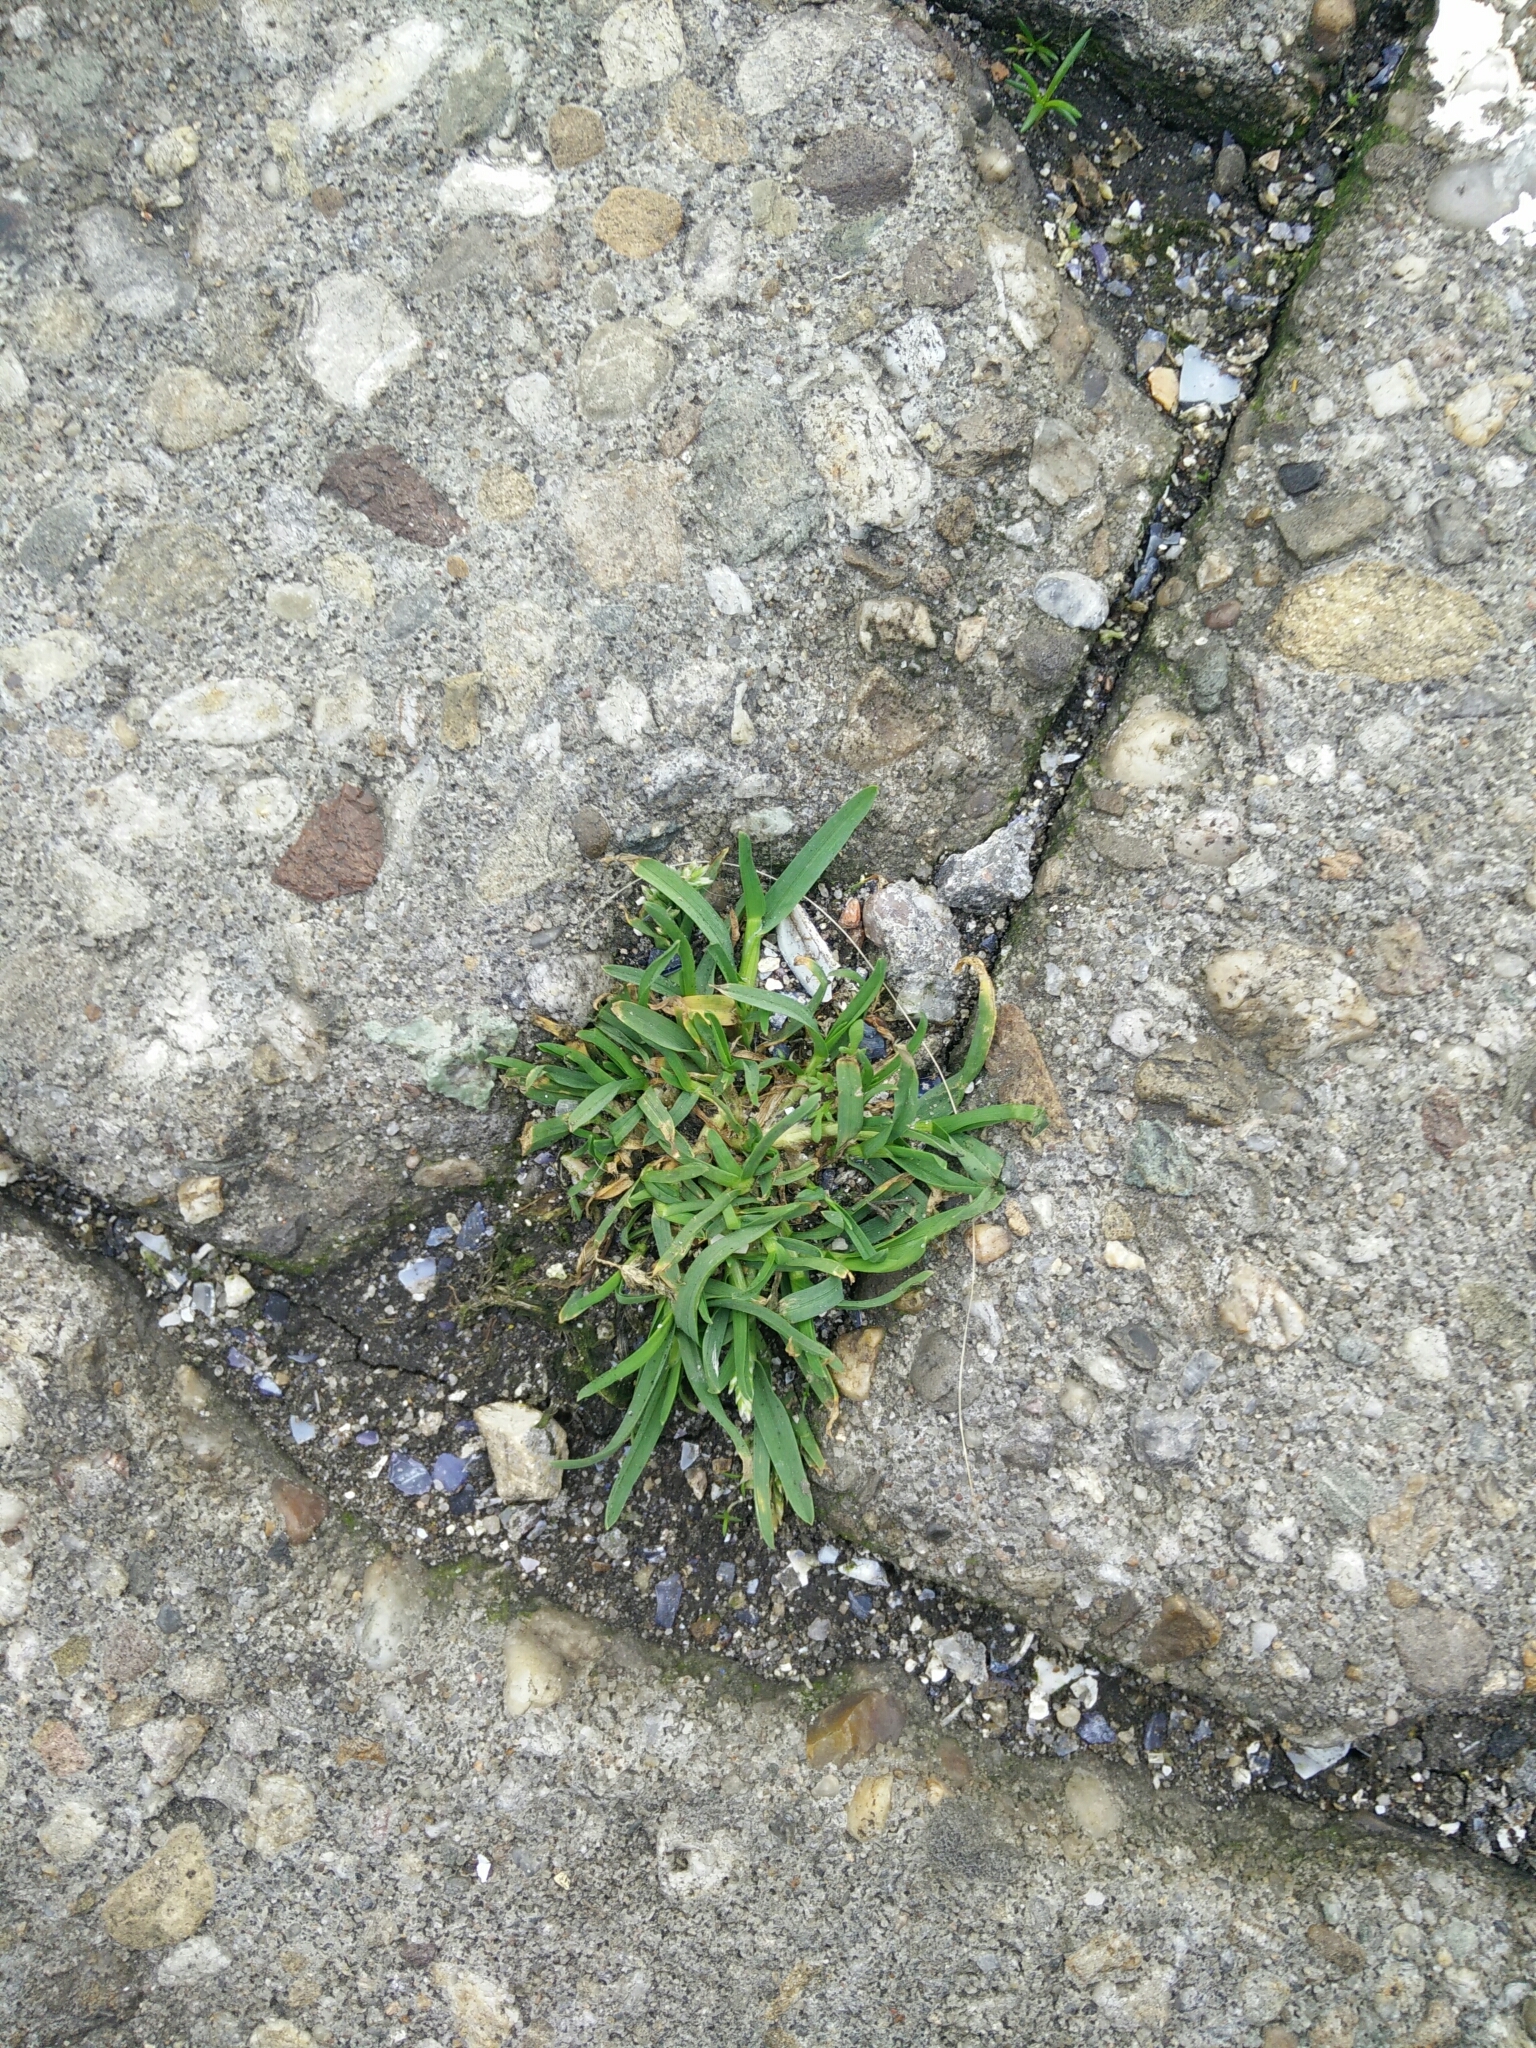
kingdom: Plantae
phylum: Tracheophyta
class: Liliopsida
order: Poales
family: Poaceae
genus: Poa
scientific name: Poa annua
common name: Annual bluegrass
